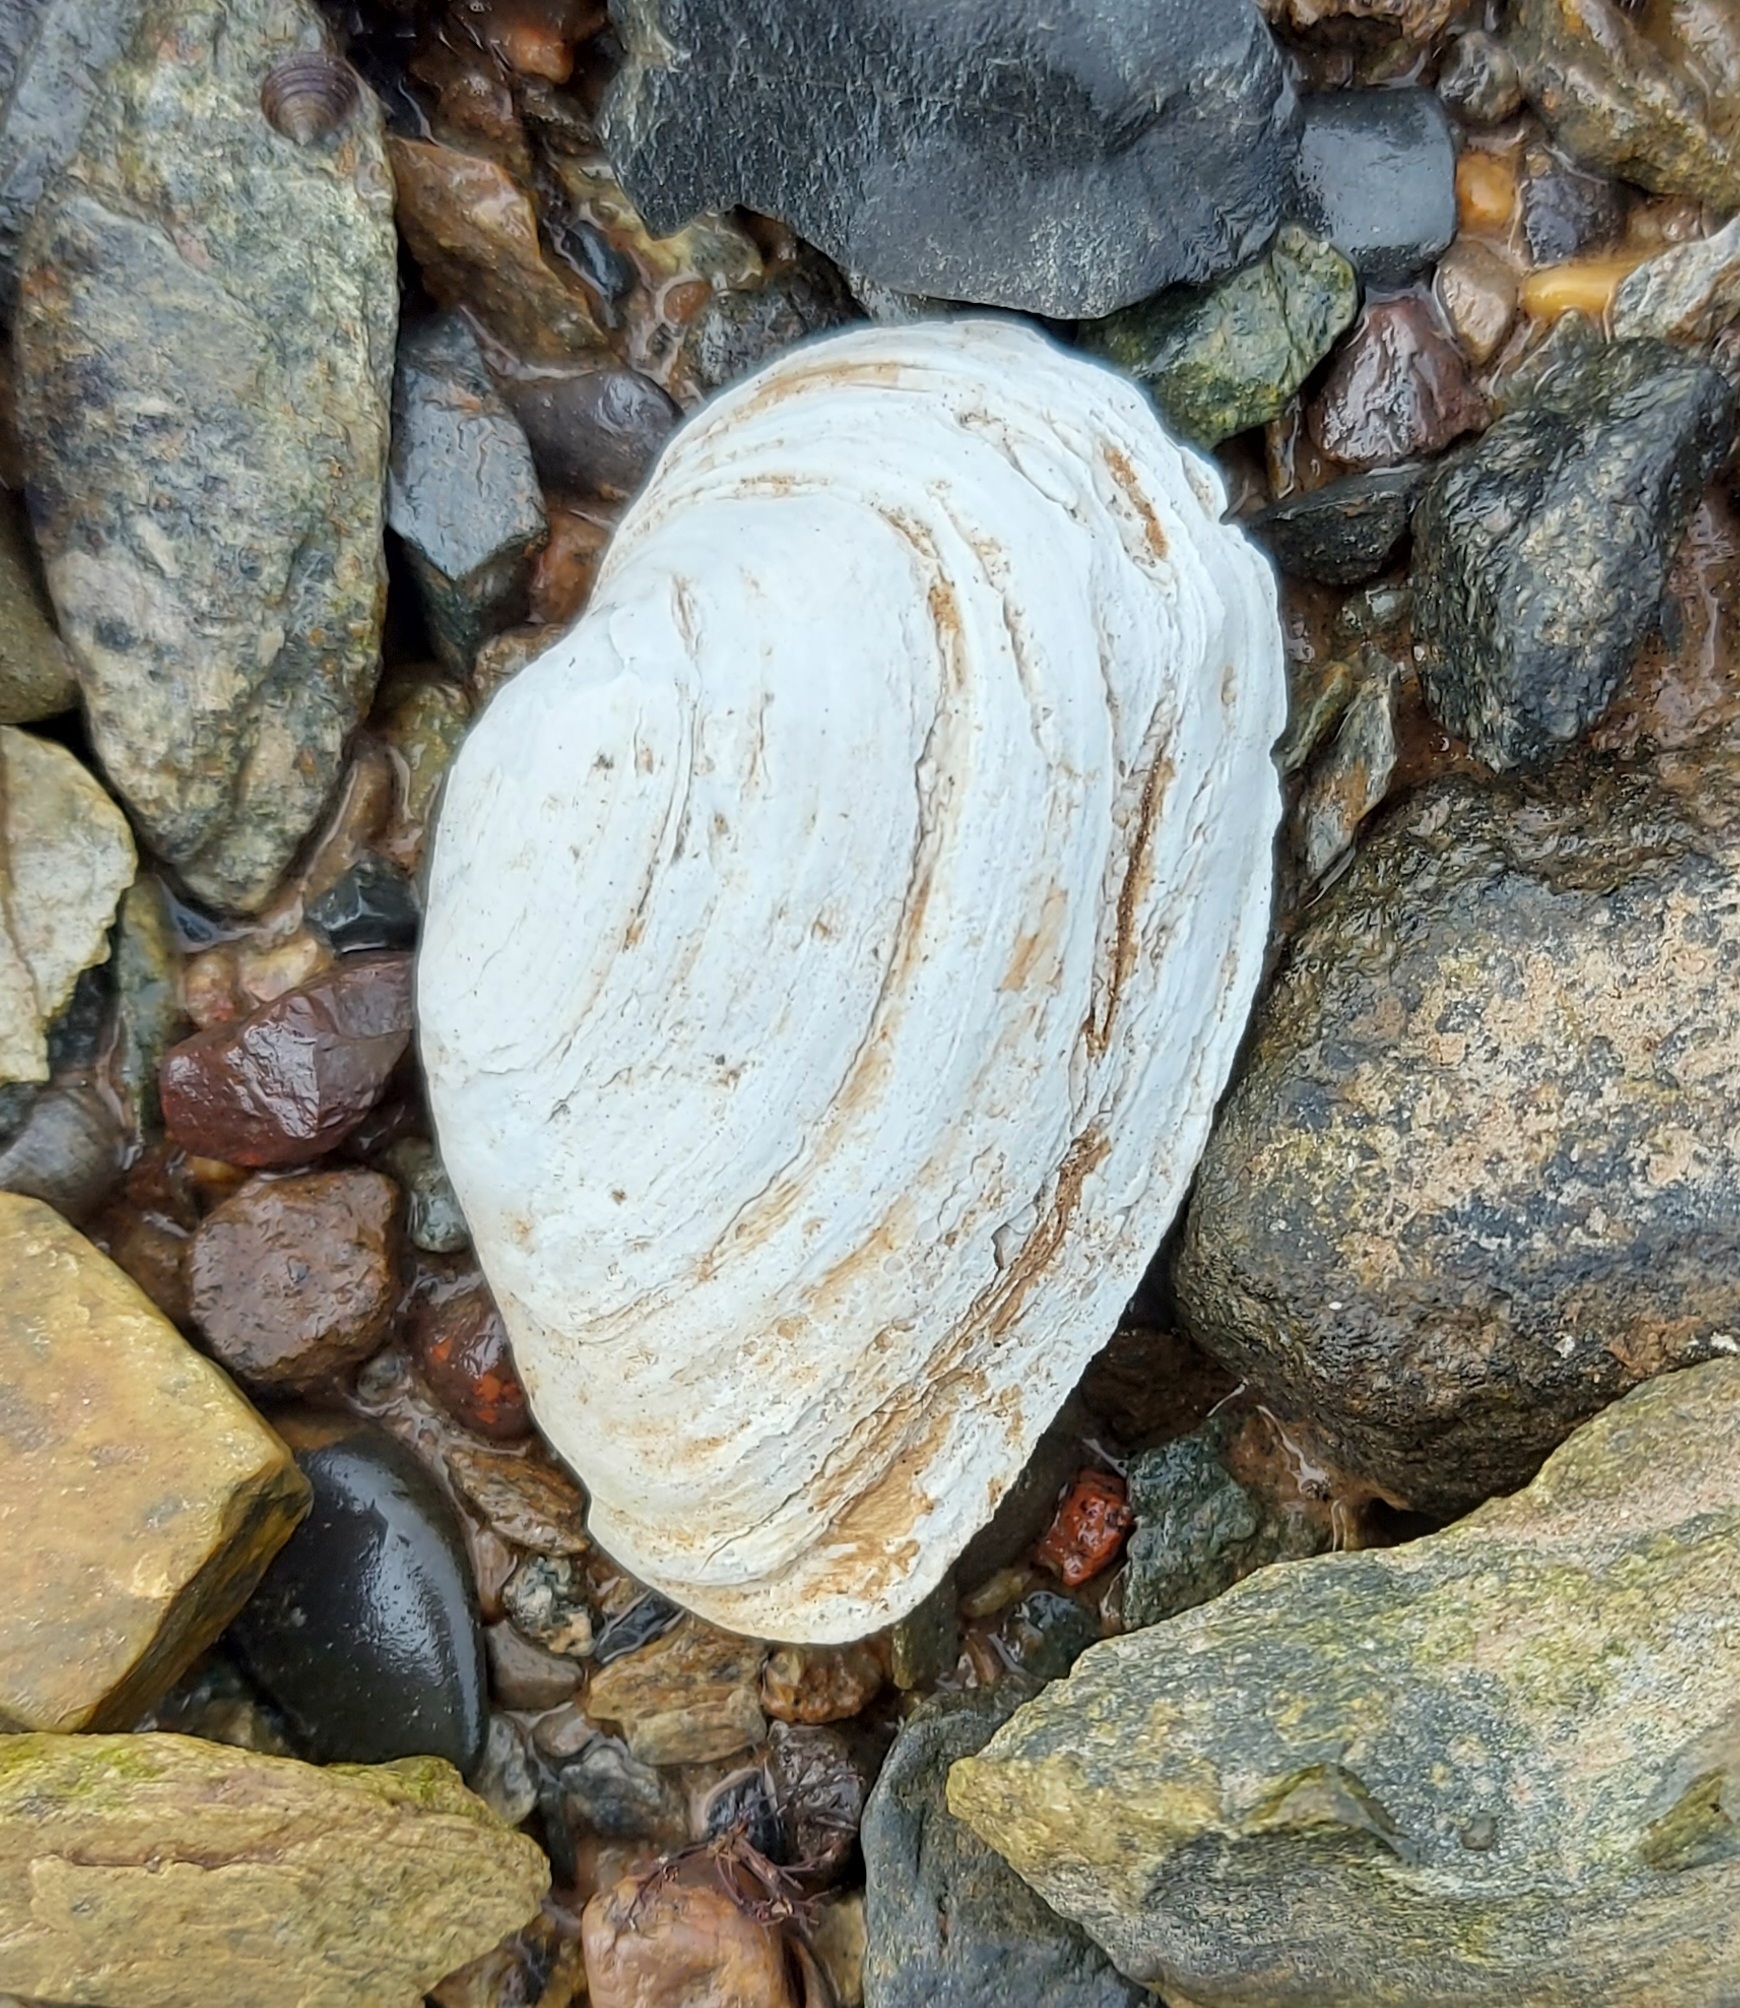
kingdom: Animalia
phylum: Mollusca
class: Bivalvia
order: Myida
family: Myidae
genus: Mya
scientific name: Mya arenaria
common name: Soft-shelled clam
